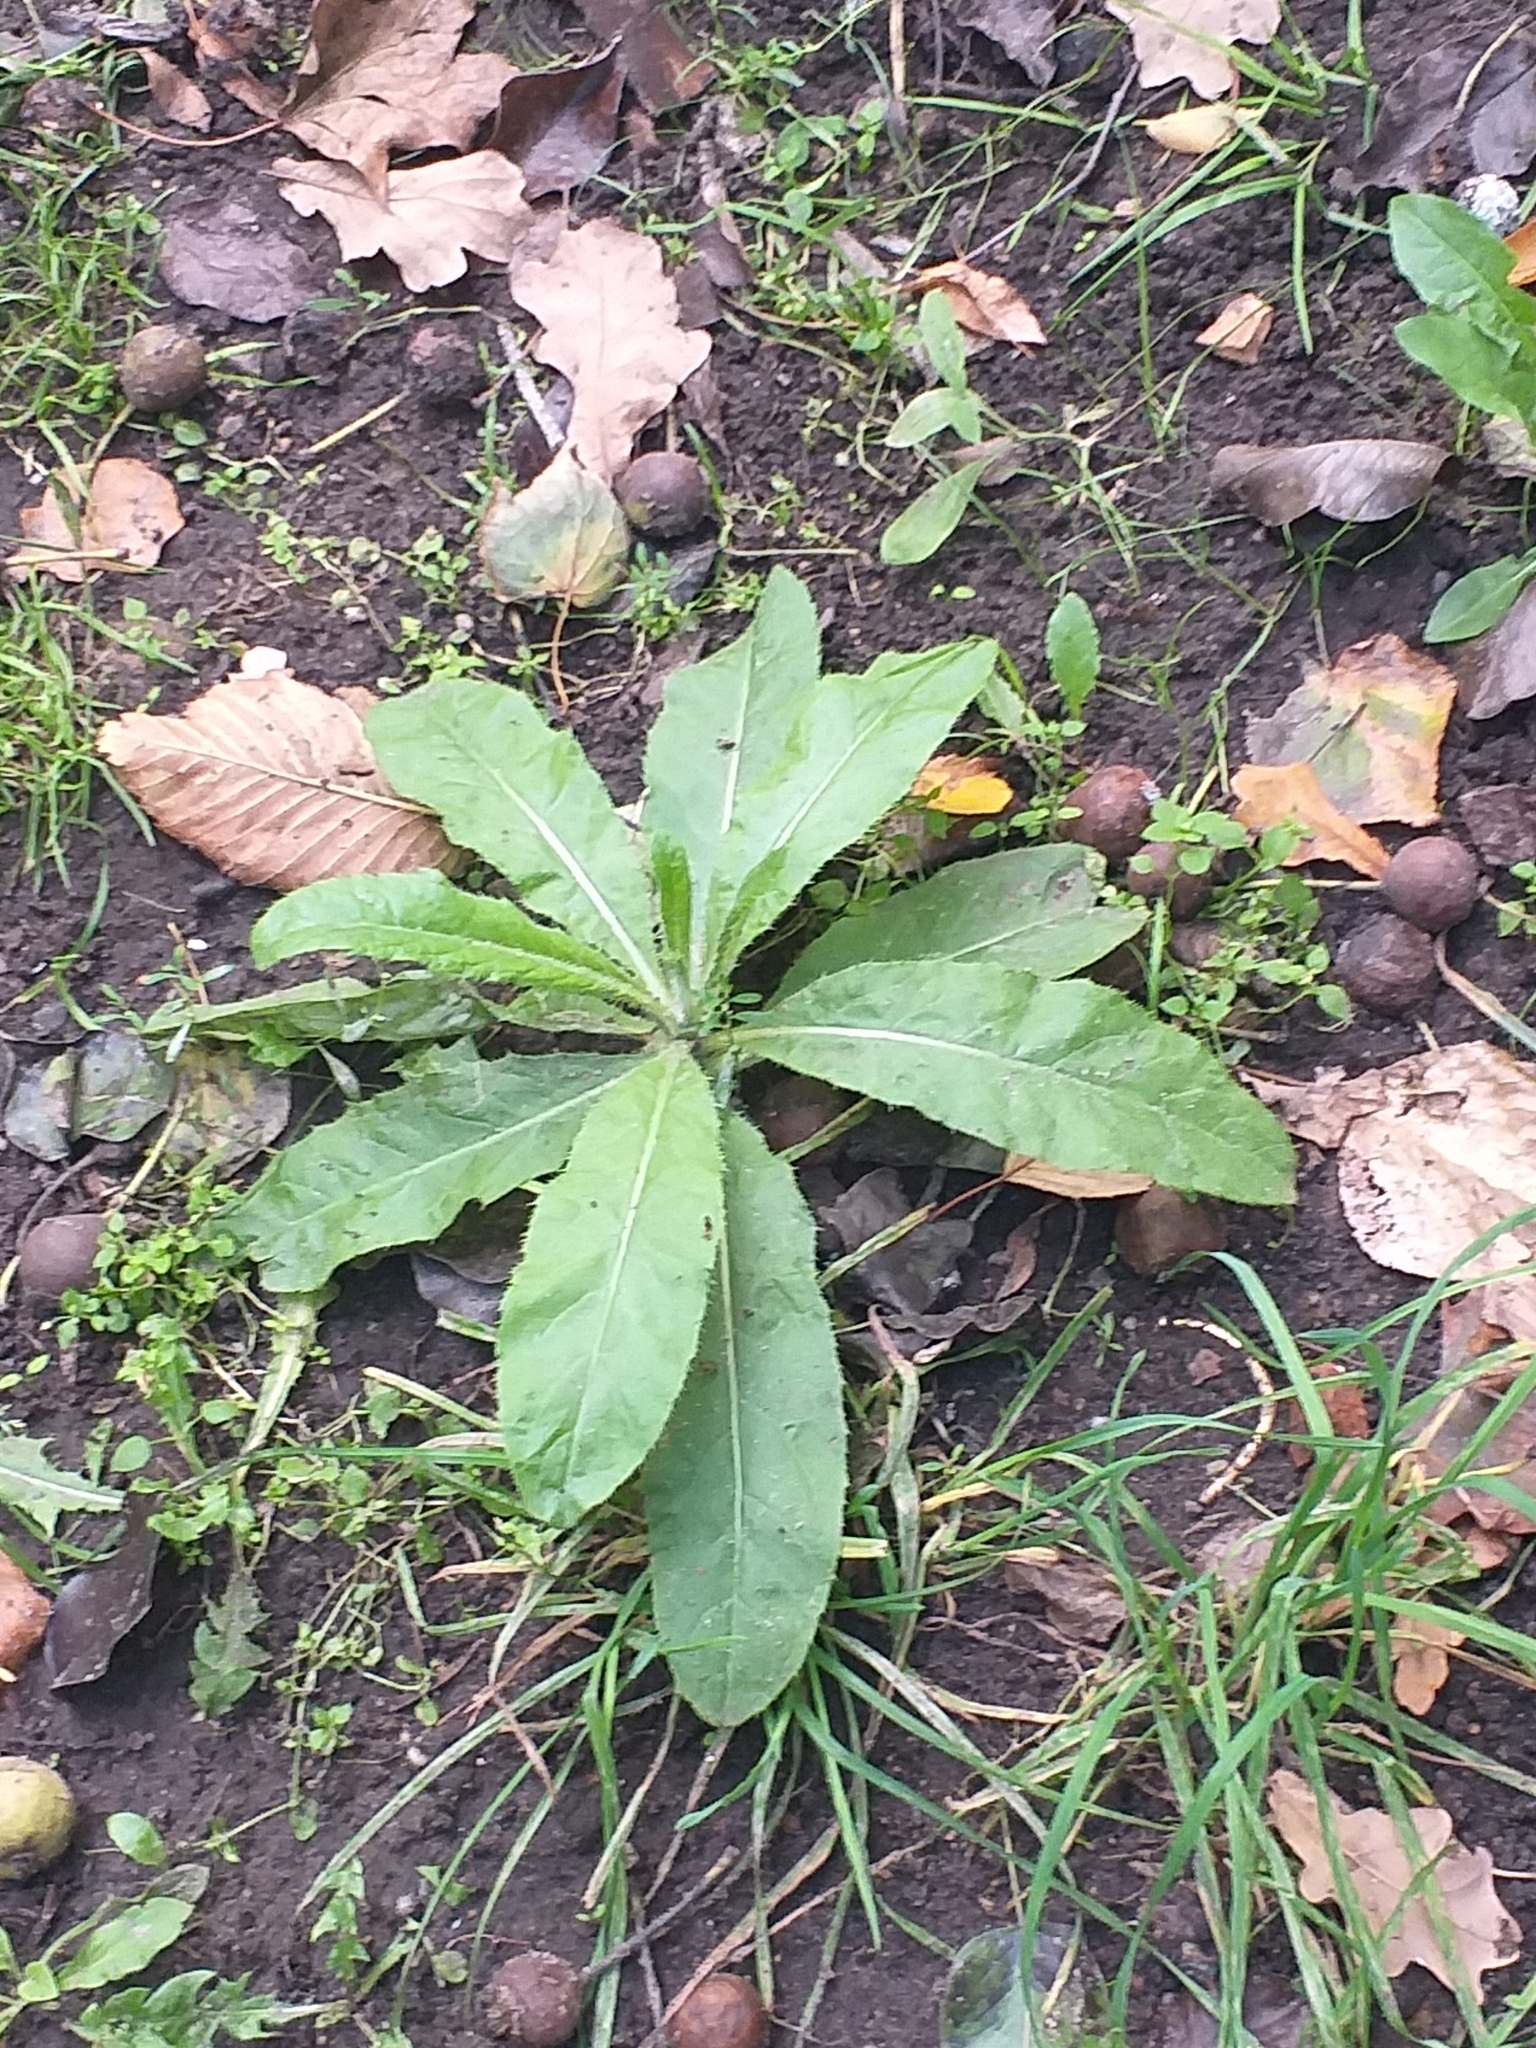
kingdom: Plantae
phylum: Tracheophyta
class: Magnoliopsida
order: Asterales
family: Asteraceae
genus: Cirsium
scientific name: Cirsium arvense
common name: Creeping thistle
